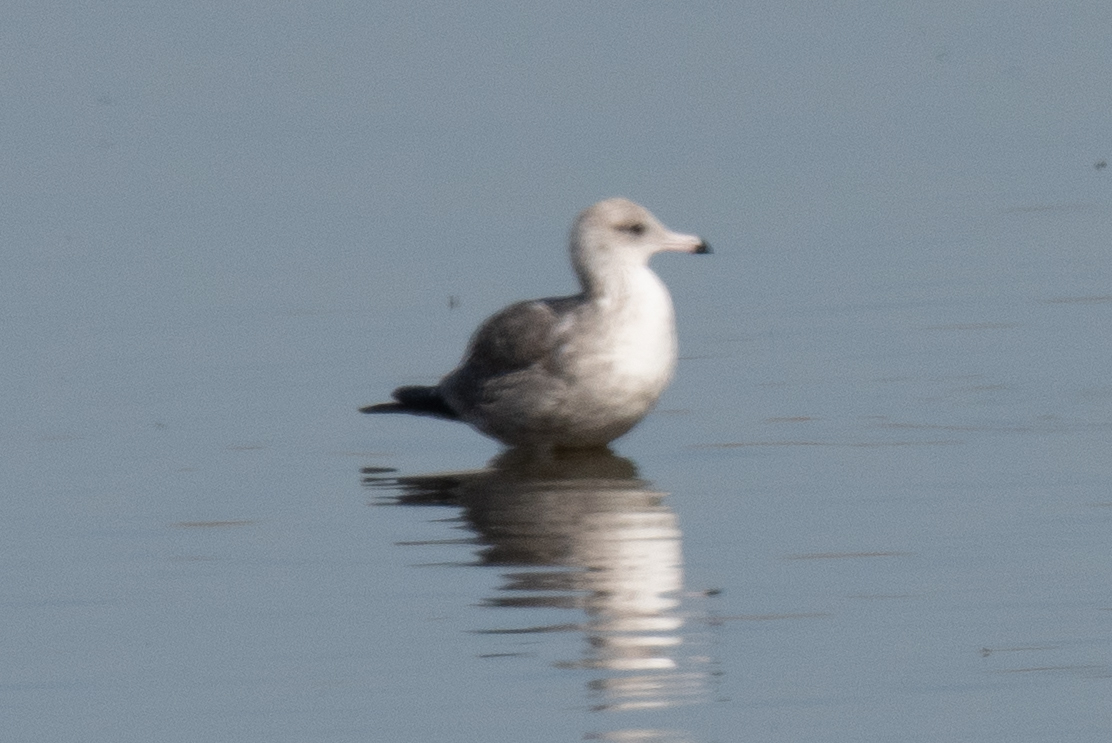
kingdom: Animalia
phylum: Chordata
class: Aves
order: Charadriiformes
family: Laridae
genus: Larus
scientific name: Larus californicus
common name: California gull
